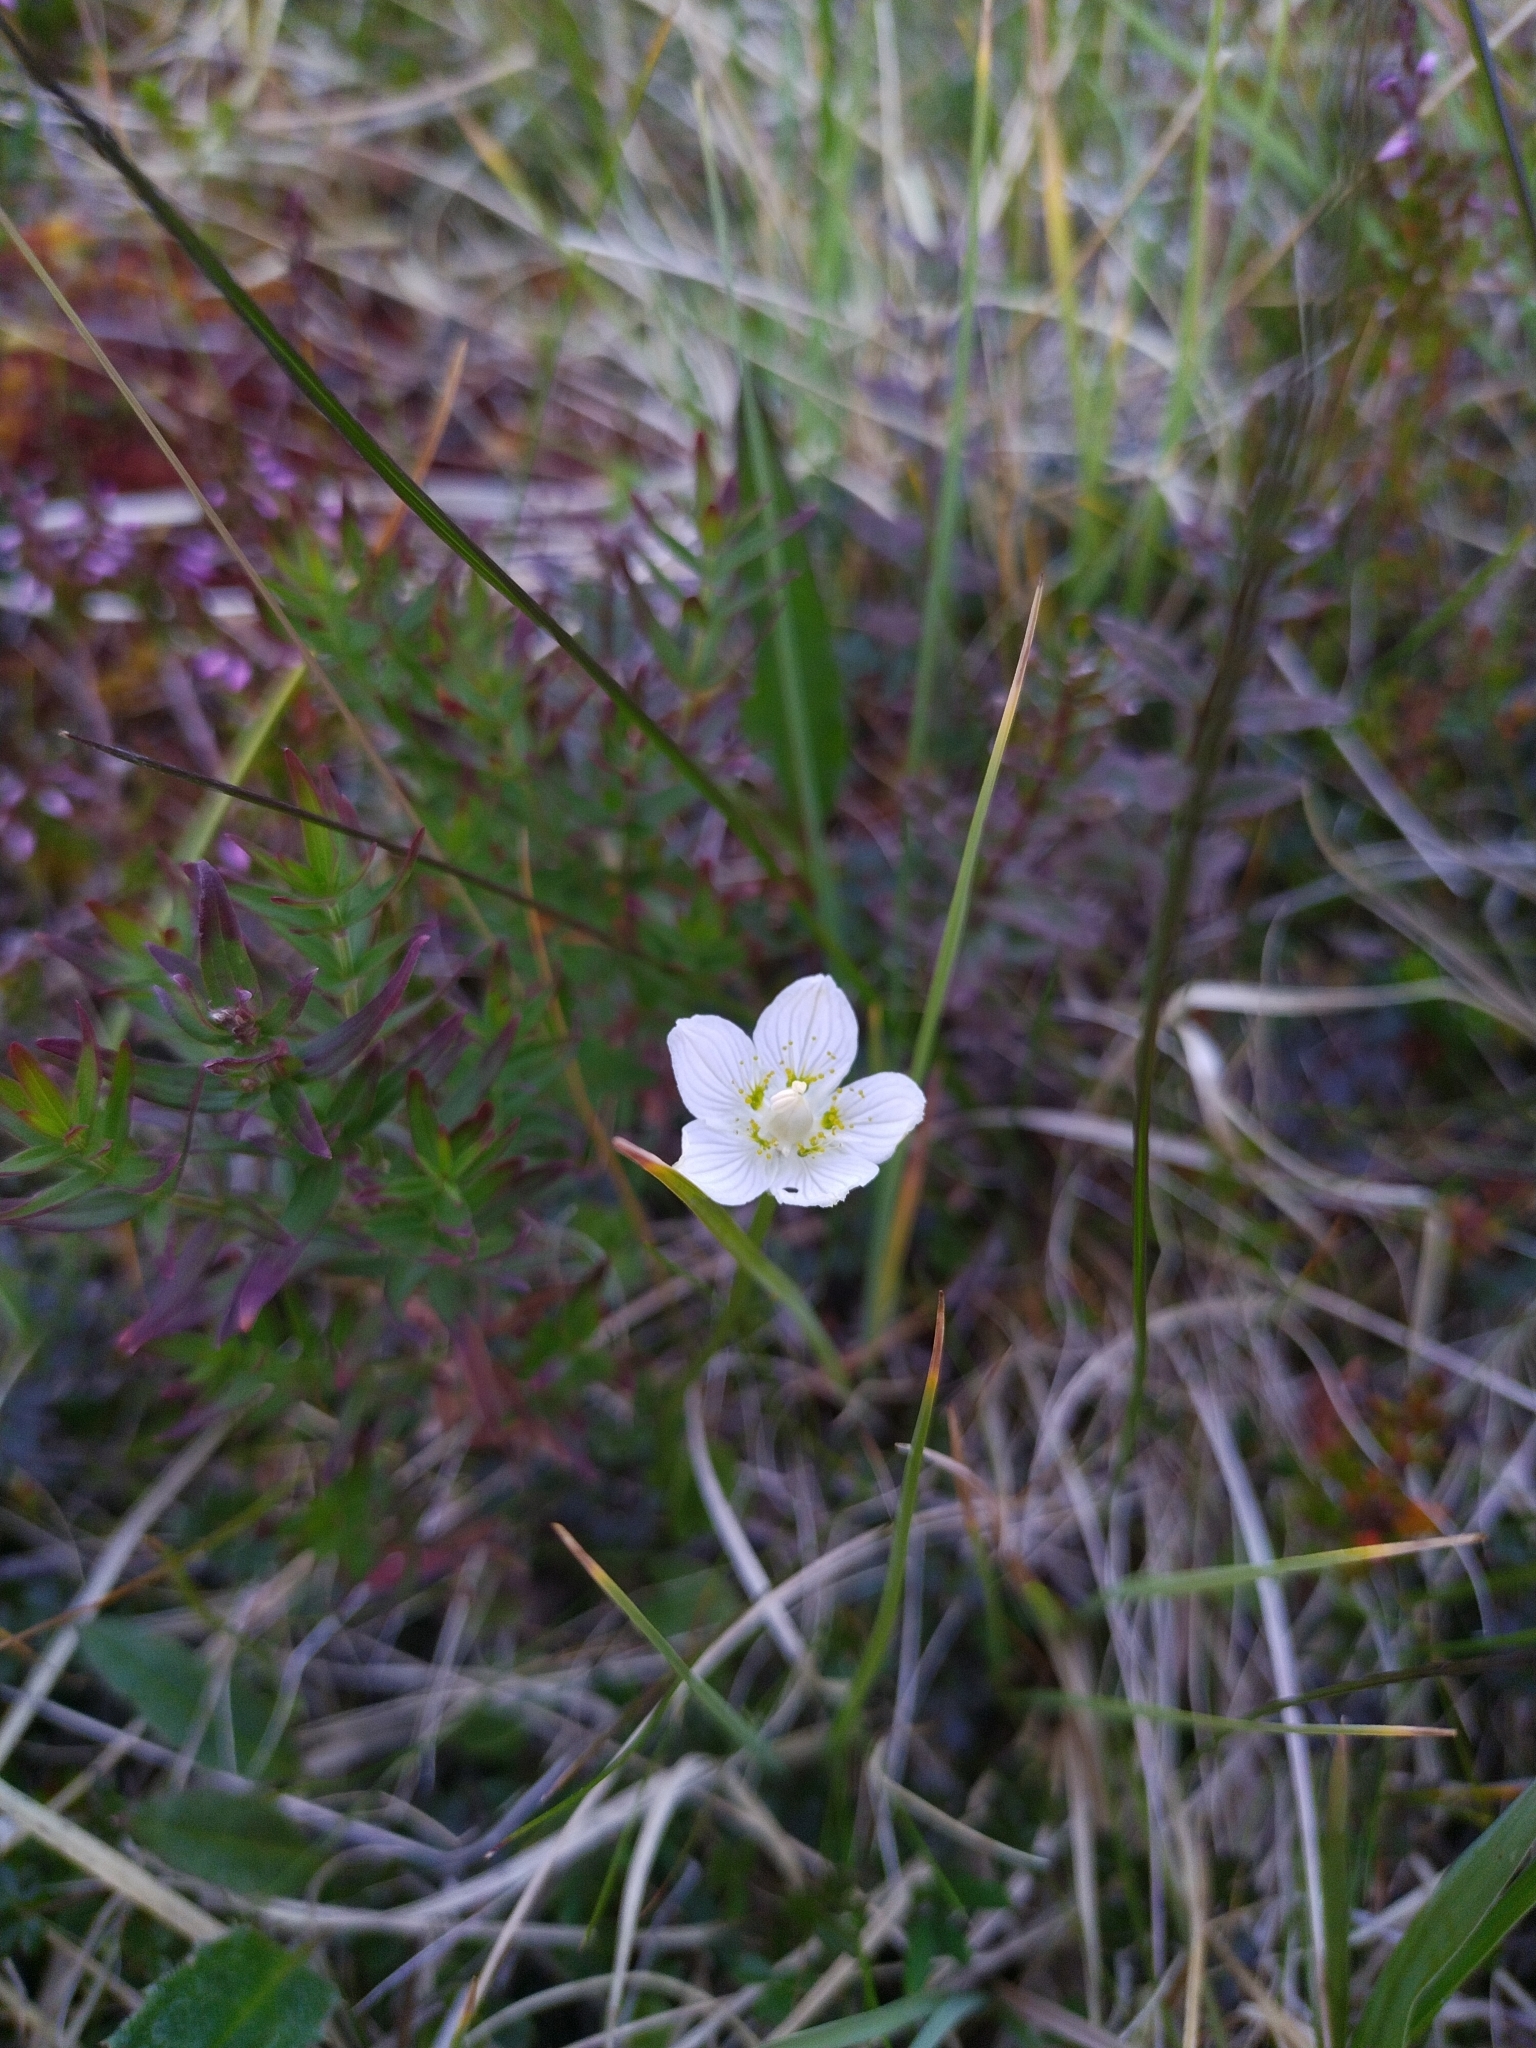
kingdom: Plantae
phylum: Tracheophyta
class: Magnoliopsida
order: Celastrales
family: Parnassiaceae
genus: Parnassia
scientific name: Parnassia palustris
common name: Grass-of-parnassus
